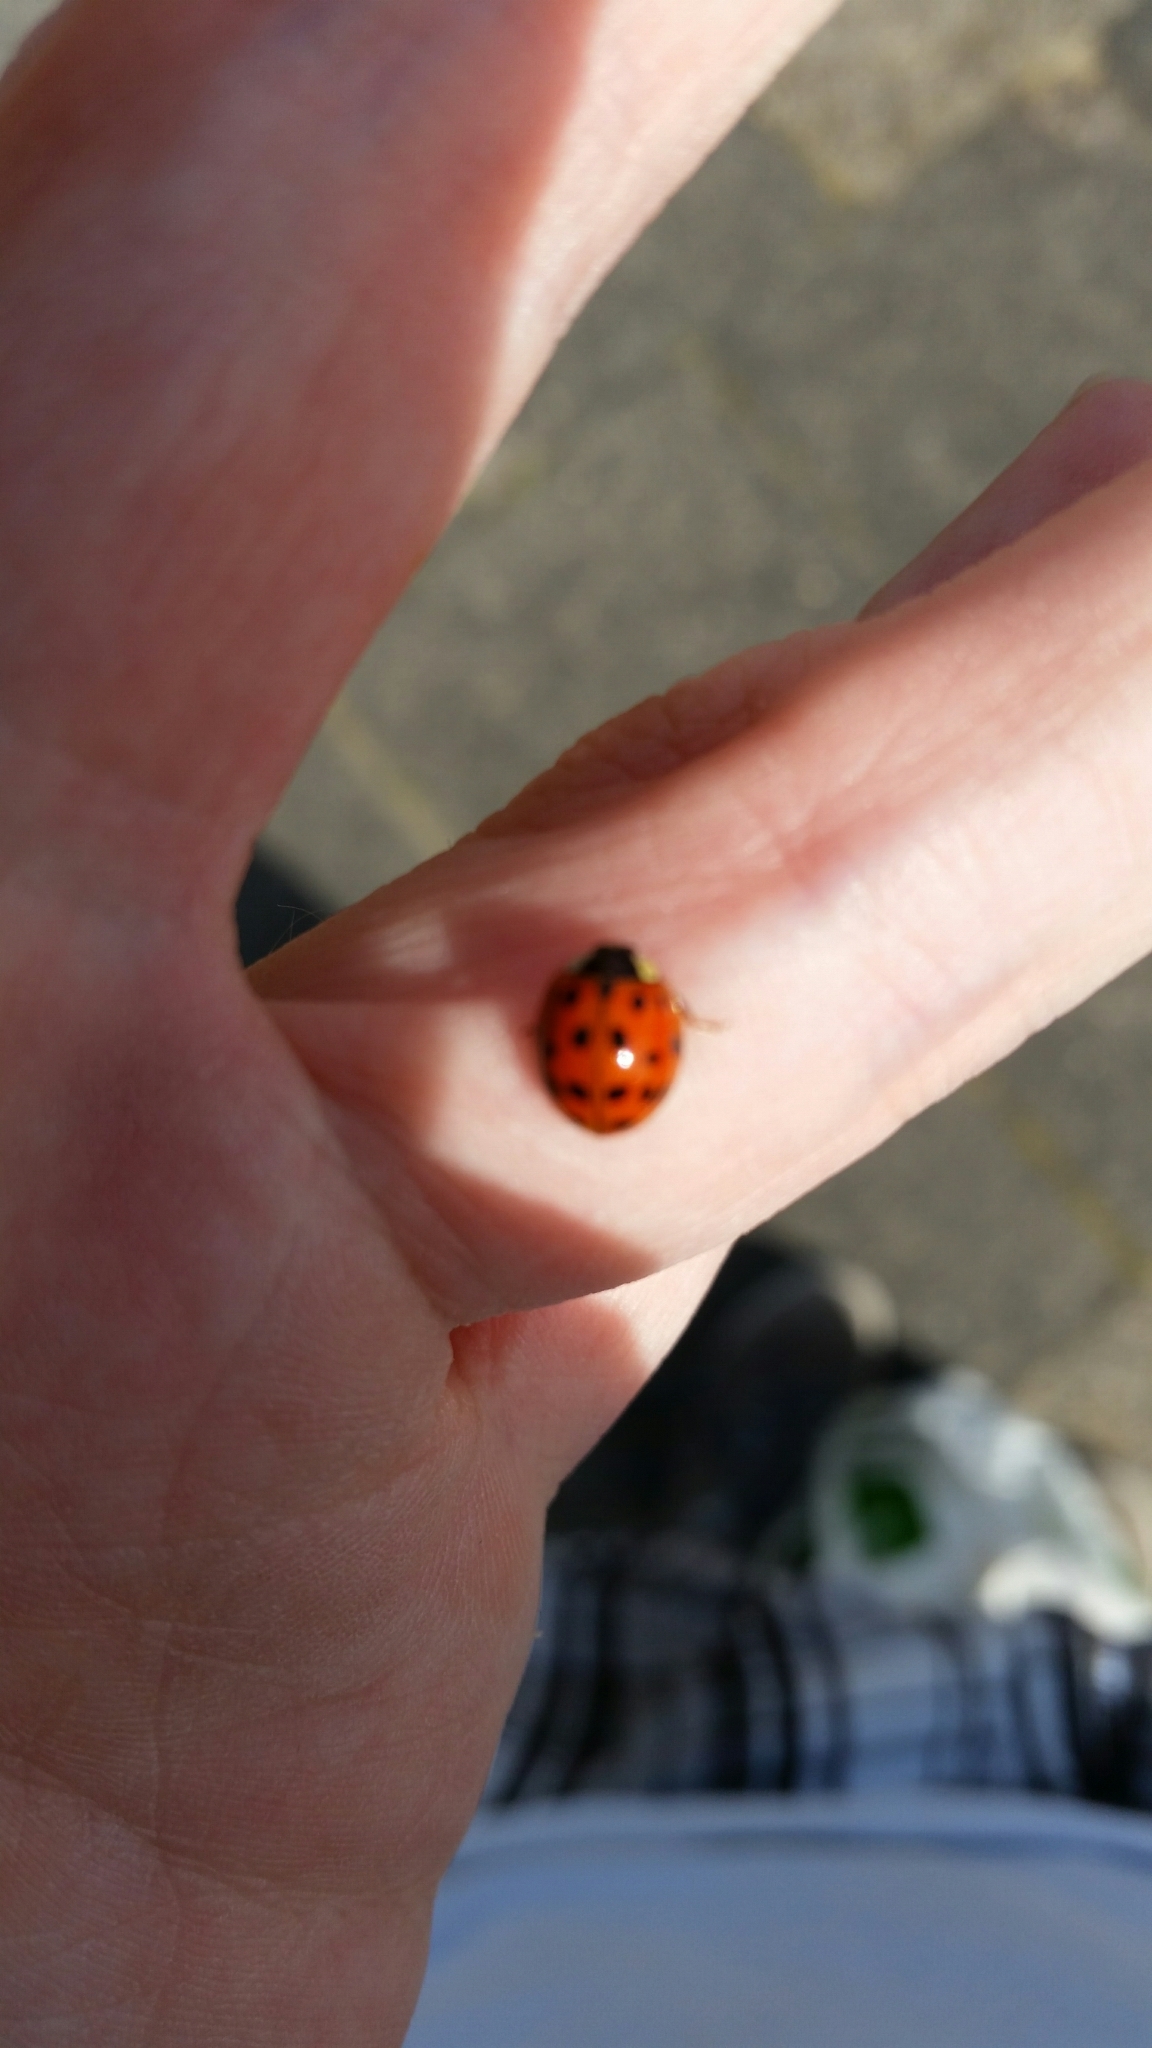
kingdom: Animalia
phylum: Arthropoda
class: Insecta
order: Coleoptera
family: Coccinellidae
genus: Harmonia
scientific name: Harmonia axyridis
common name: Harlequin ladybird
